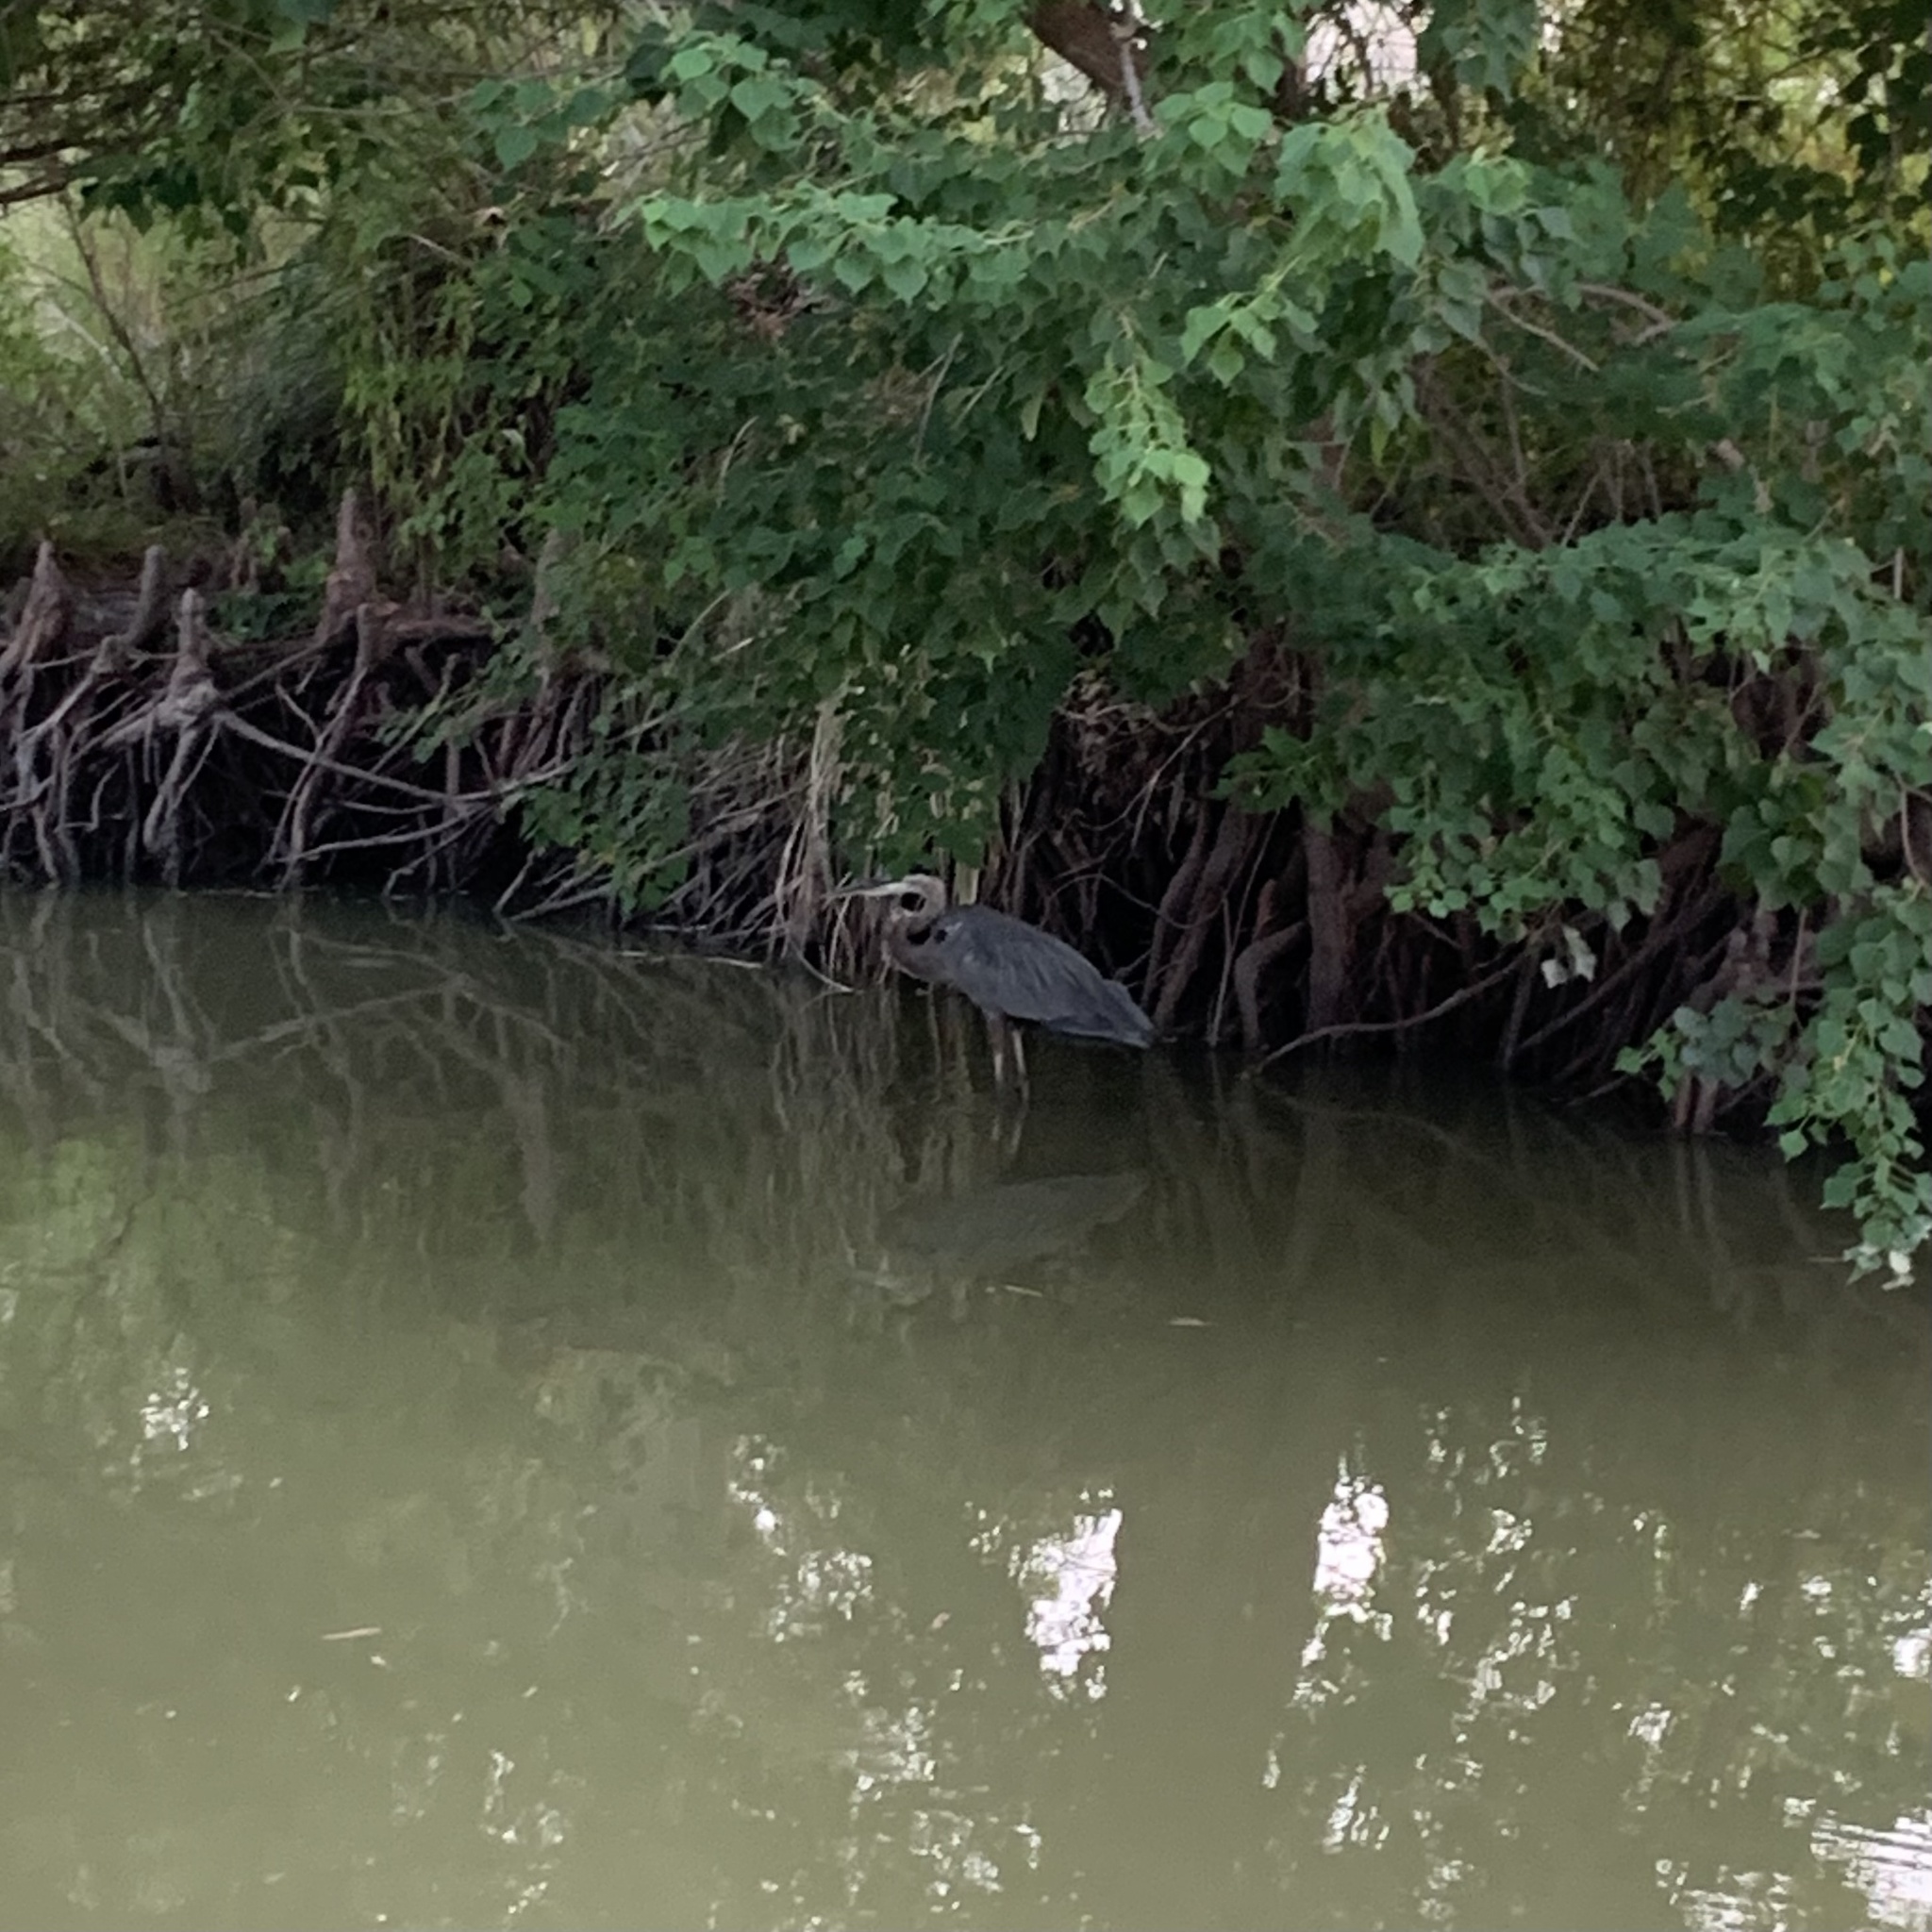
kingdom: Animalia
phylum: Chordata
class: Aves
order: Pelecaniformes
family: Ardeidae
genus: Ardea
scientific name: Ardea herodias
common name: Great blue heron
